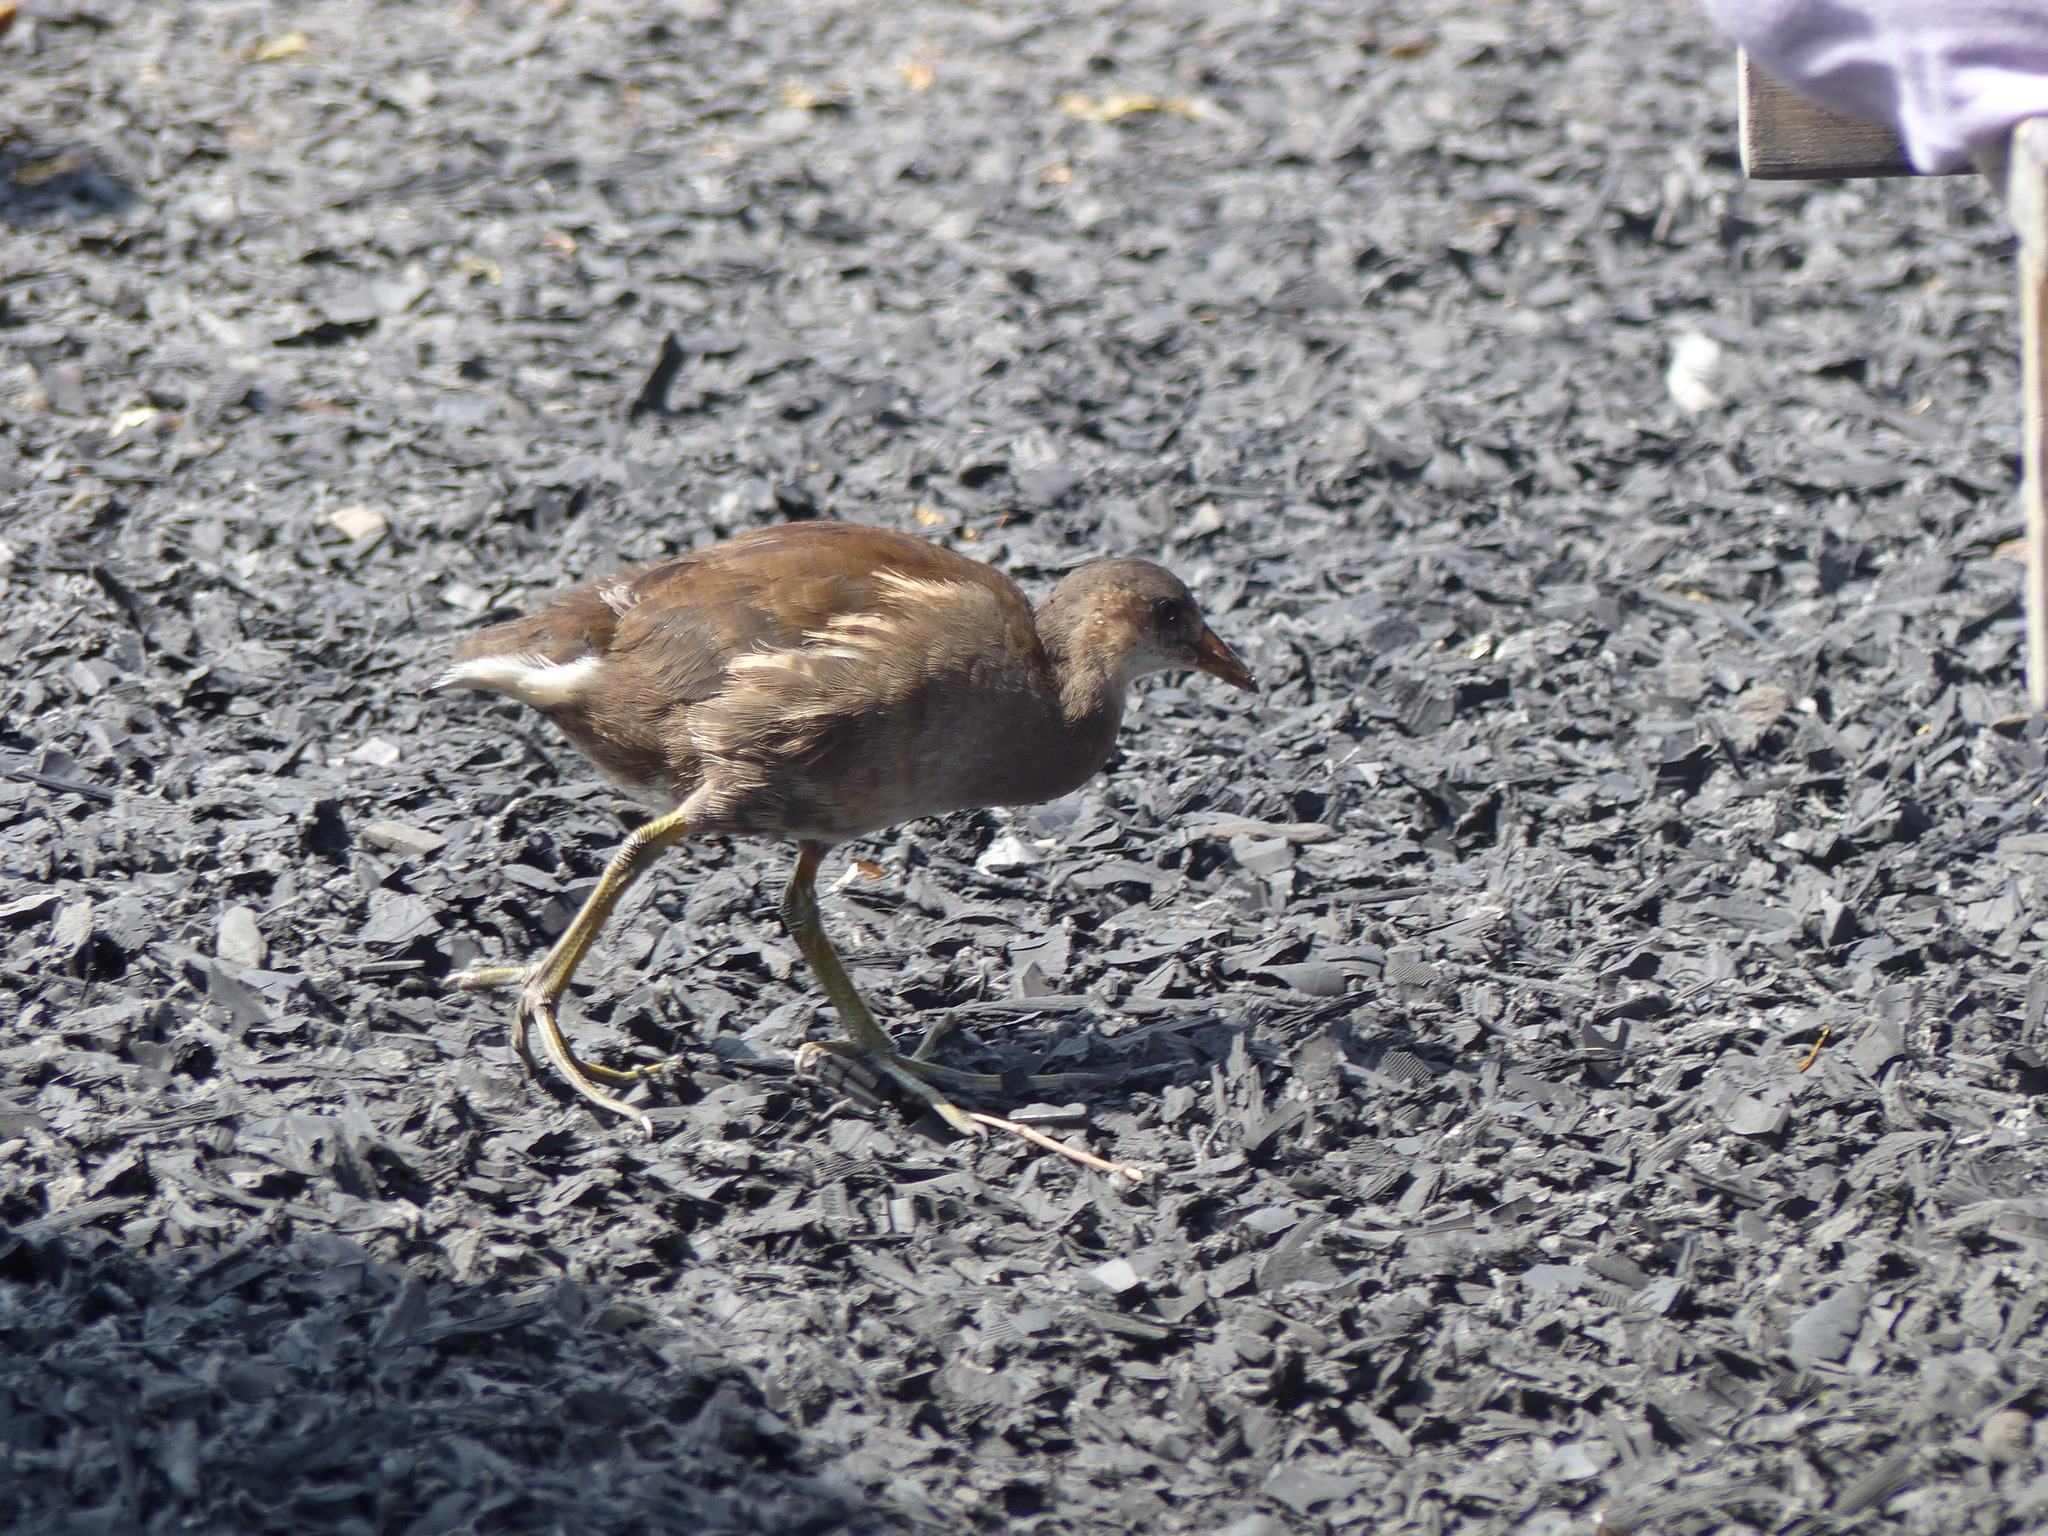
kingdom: Animalia
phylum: Chordata
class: Aves
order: Gruiformes
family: Rallidae
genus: Gallinula
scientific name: Gallinula chloropus
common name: Common moorhen
